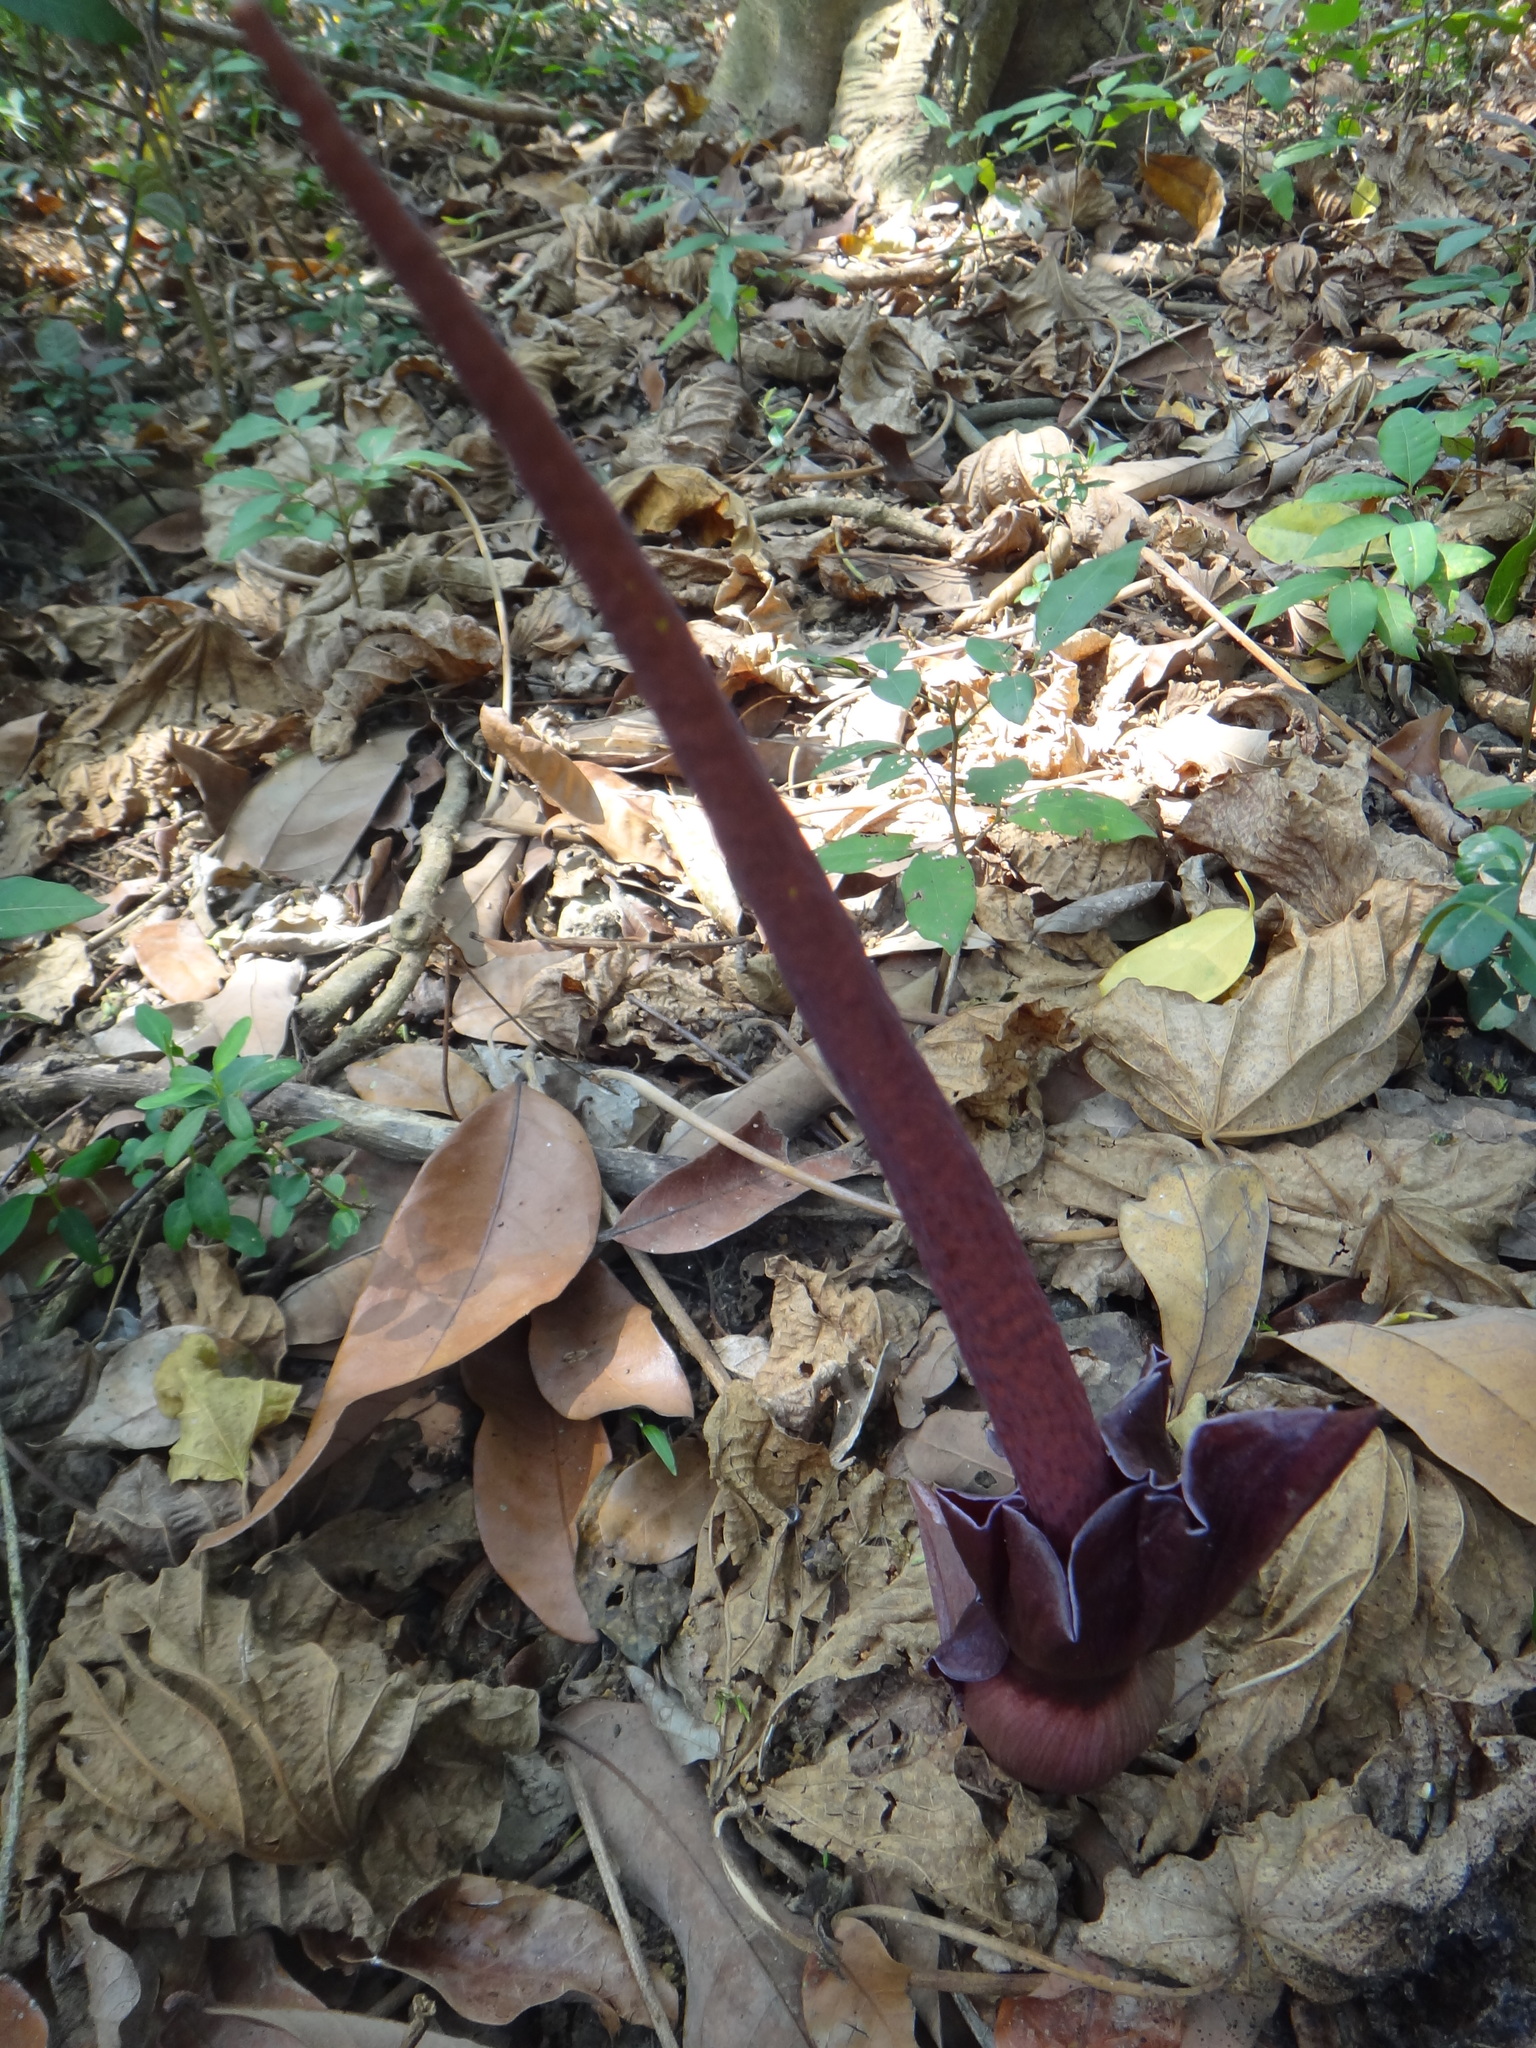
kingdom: Plantae
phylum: Tracheophyta
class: Liliopsida
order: Alismatales
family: Araceae
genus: Amorphophallus
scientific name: Amorphophallus henryi
